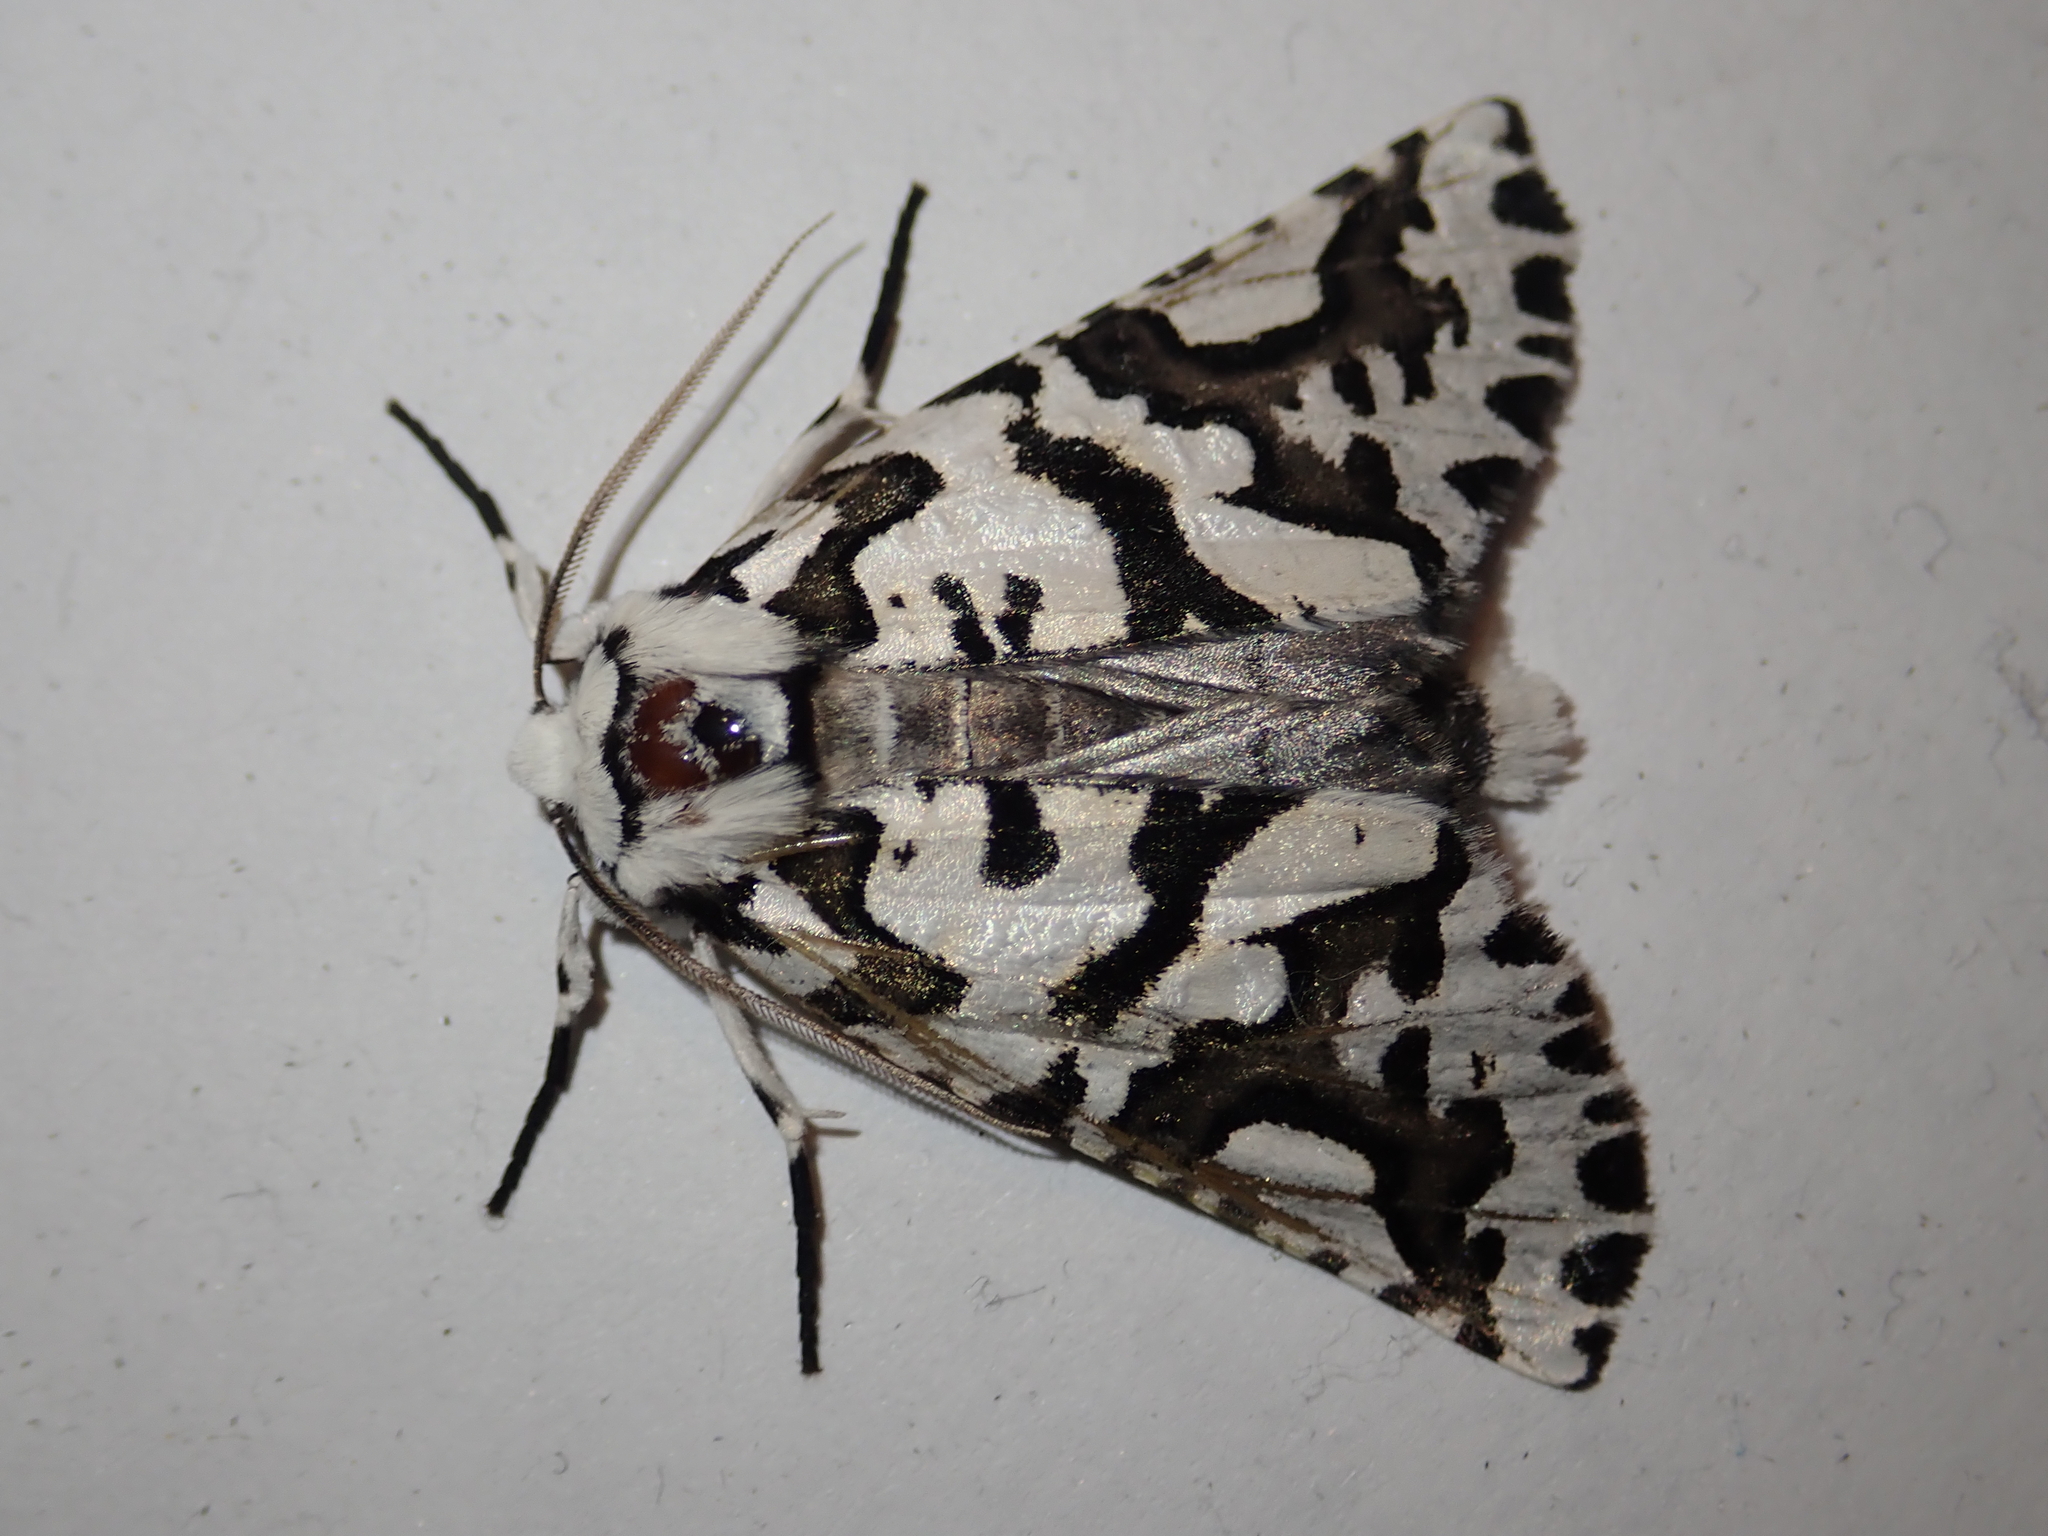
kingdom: Animalia
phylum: Arthropoda
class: Insecta
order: Lepidoptera
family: Geometridae
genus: Declana
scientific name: Declana
